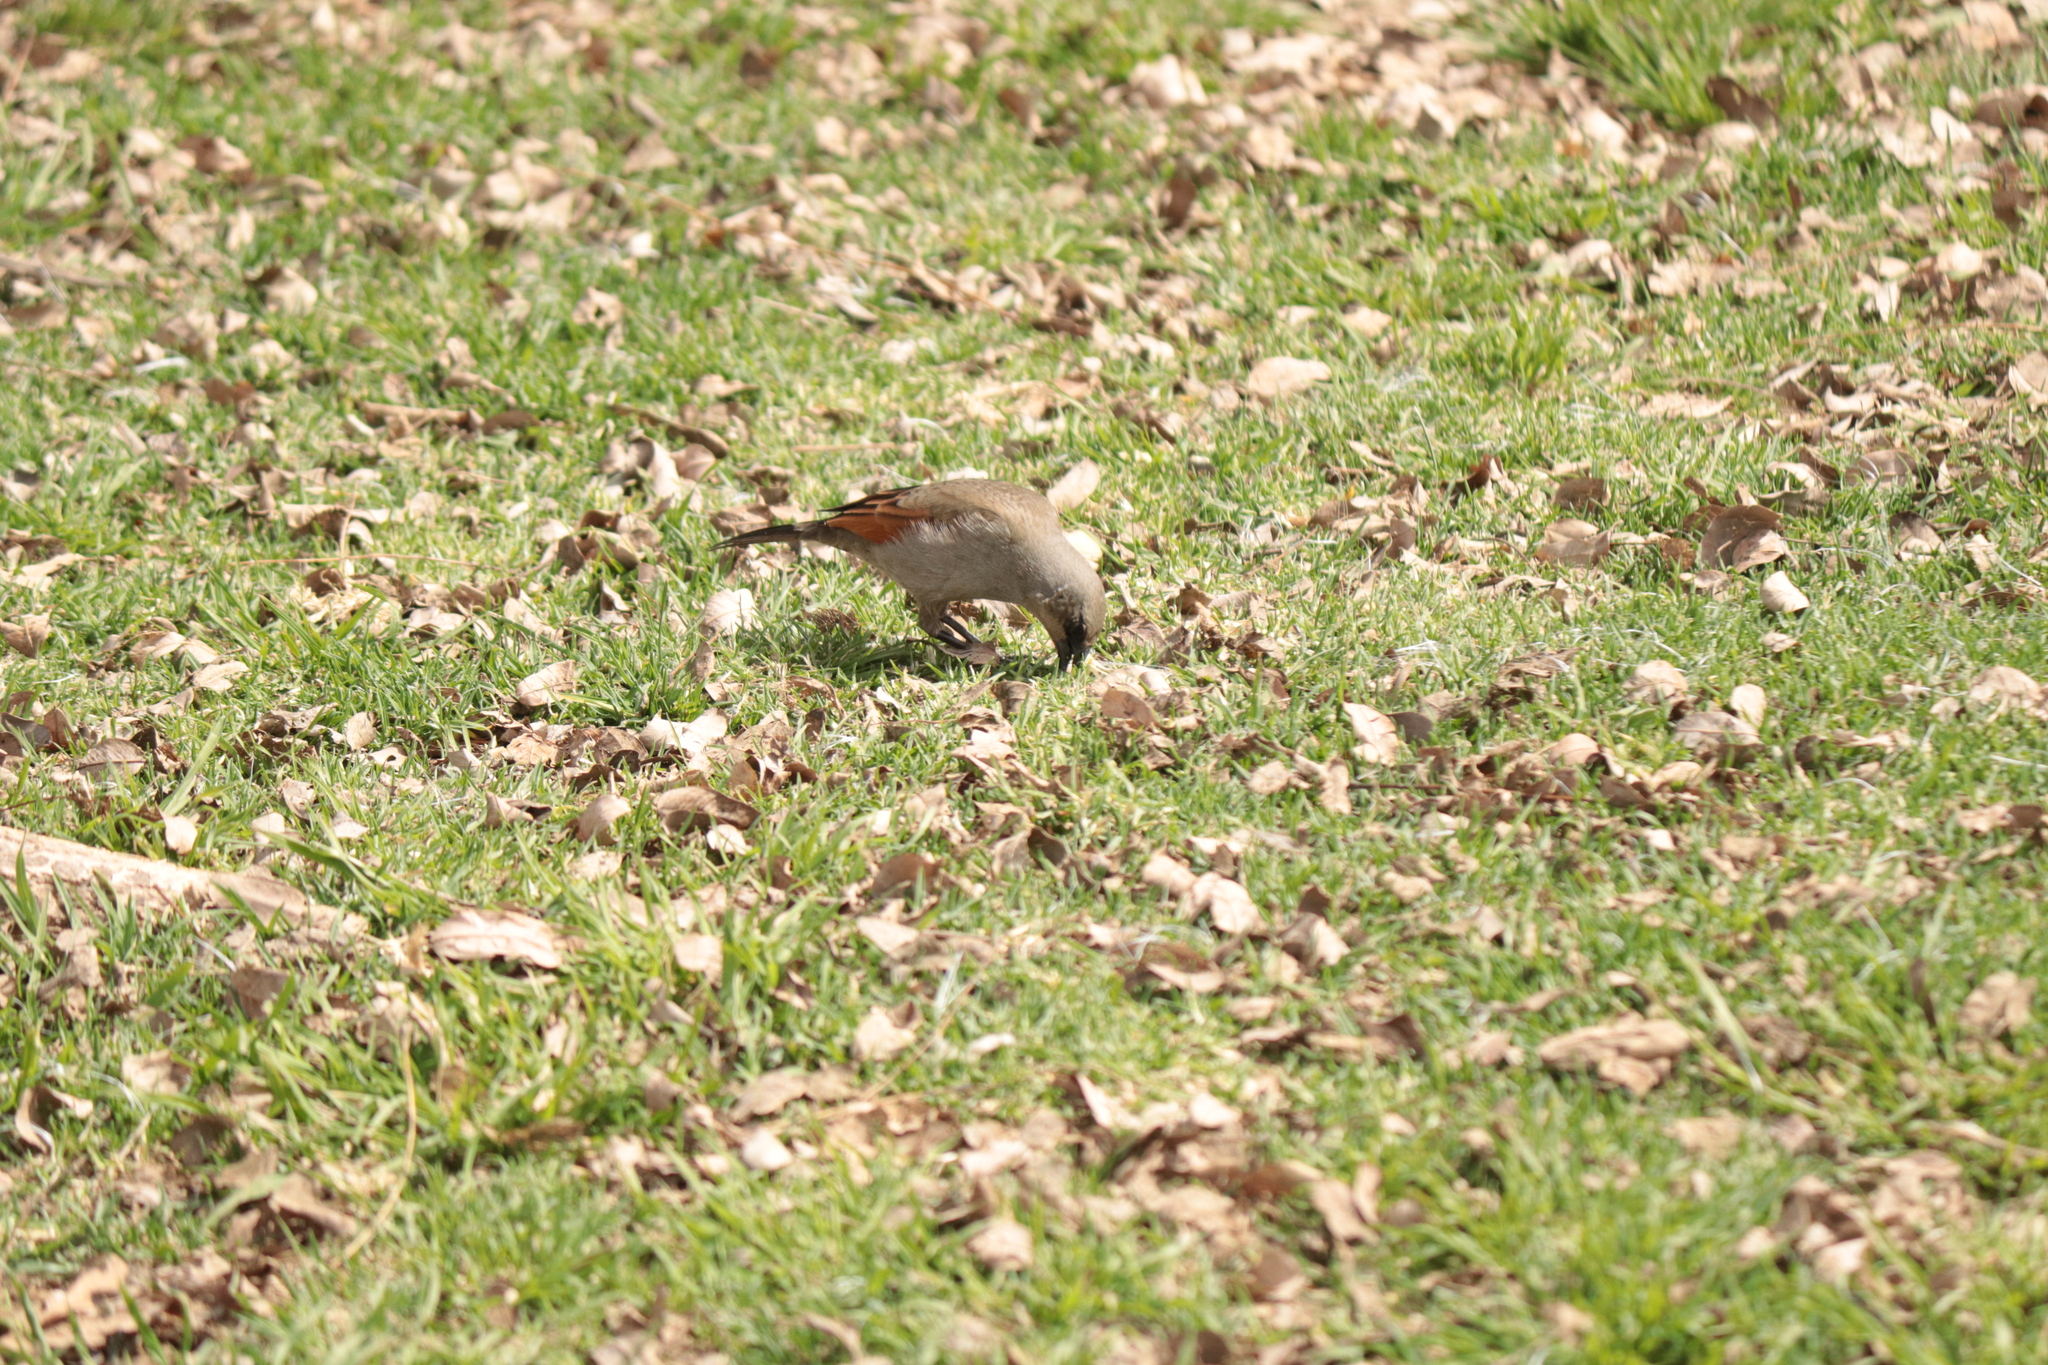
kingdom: Animalia
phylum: Chordata
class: Aves
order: Passeriformes
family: Icteridae
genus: Agelaioides
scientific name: Agelaioides badius
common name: Baywing
